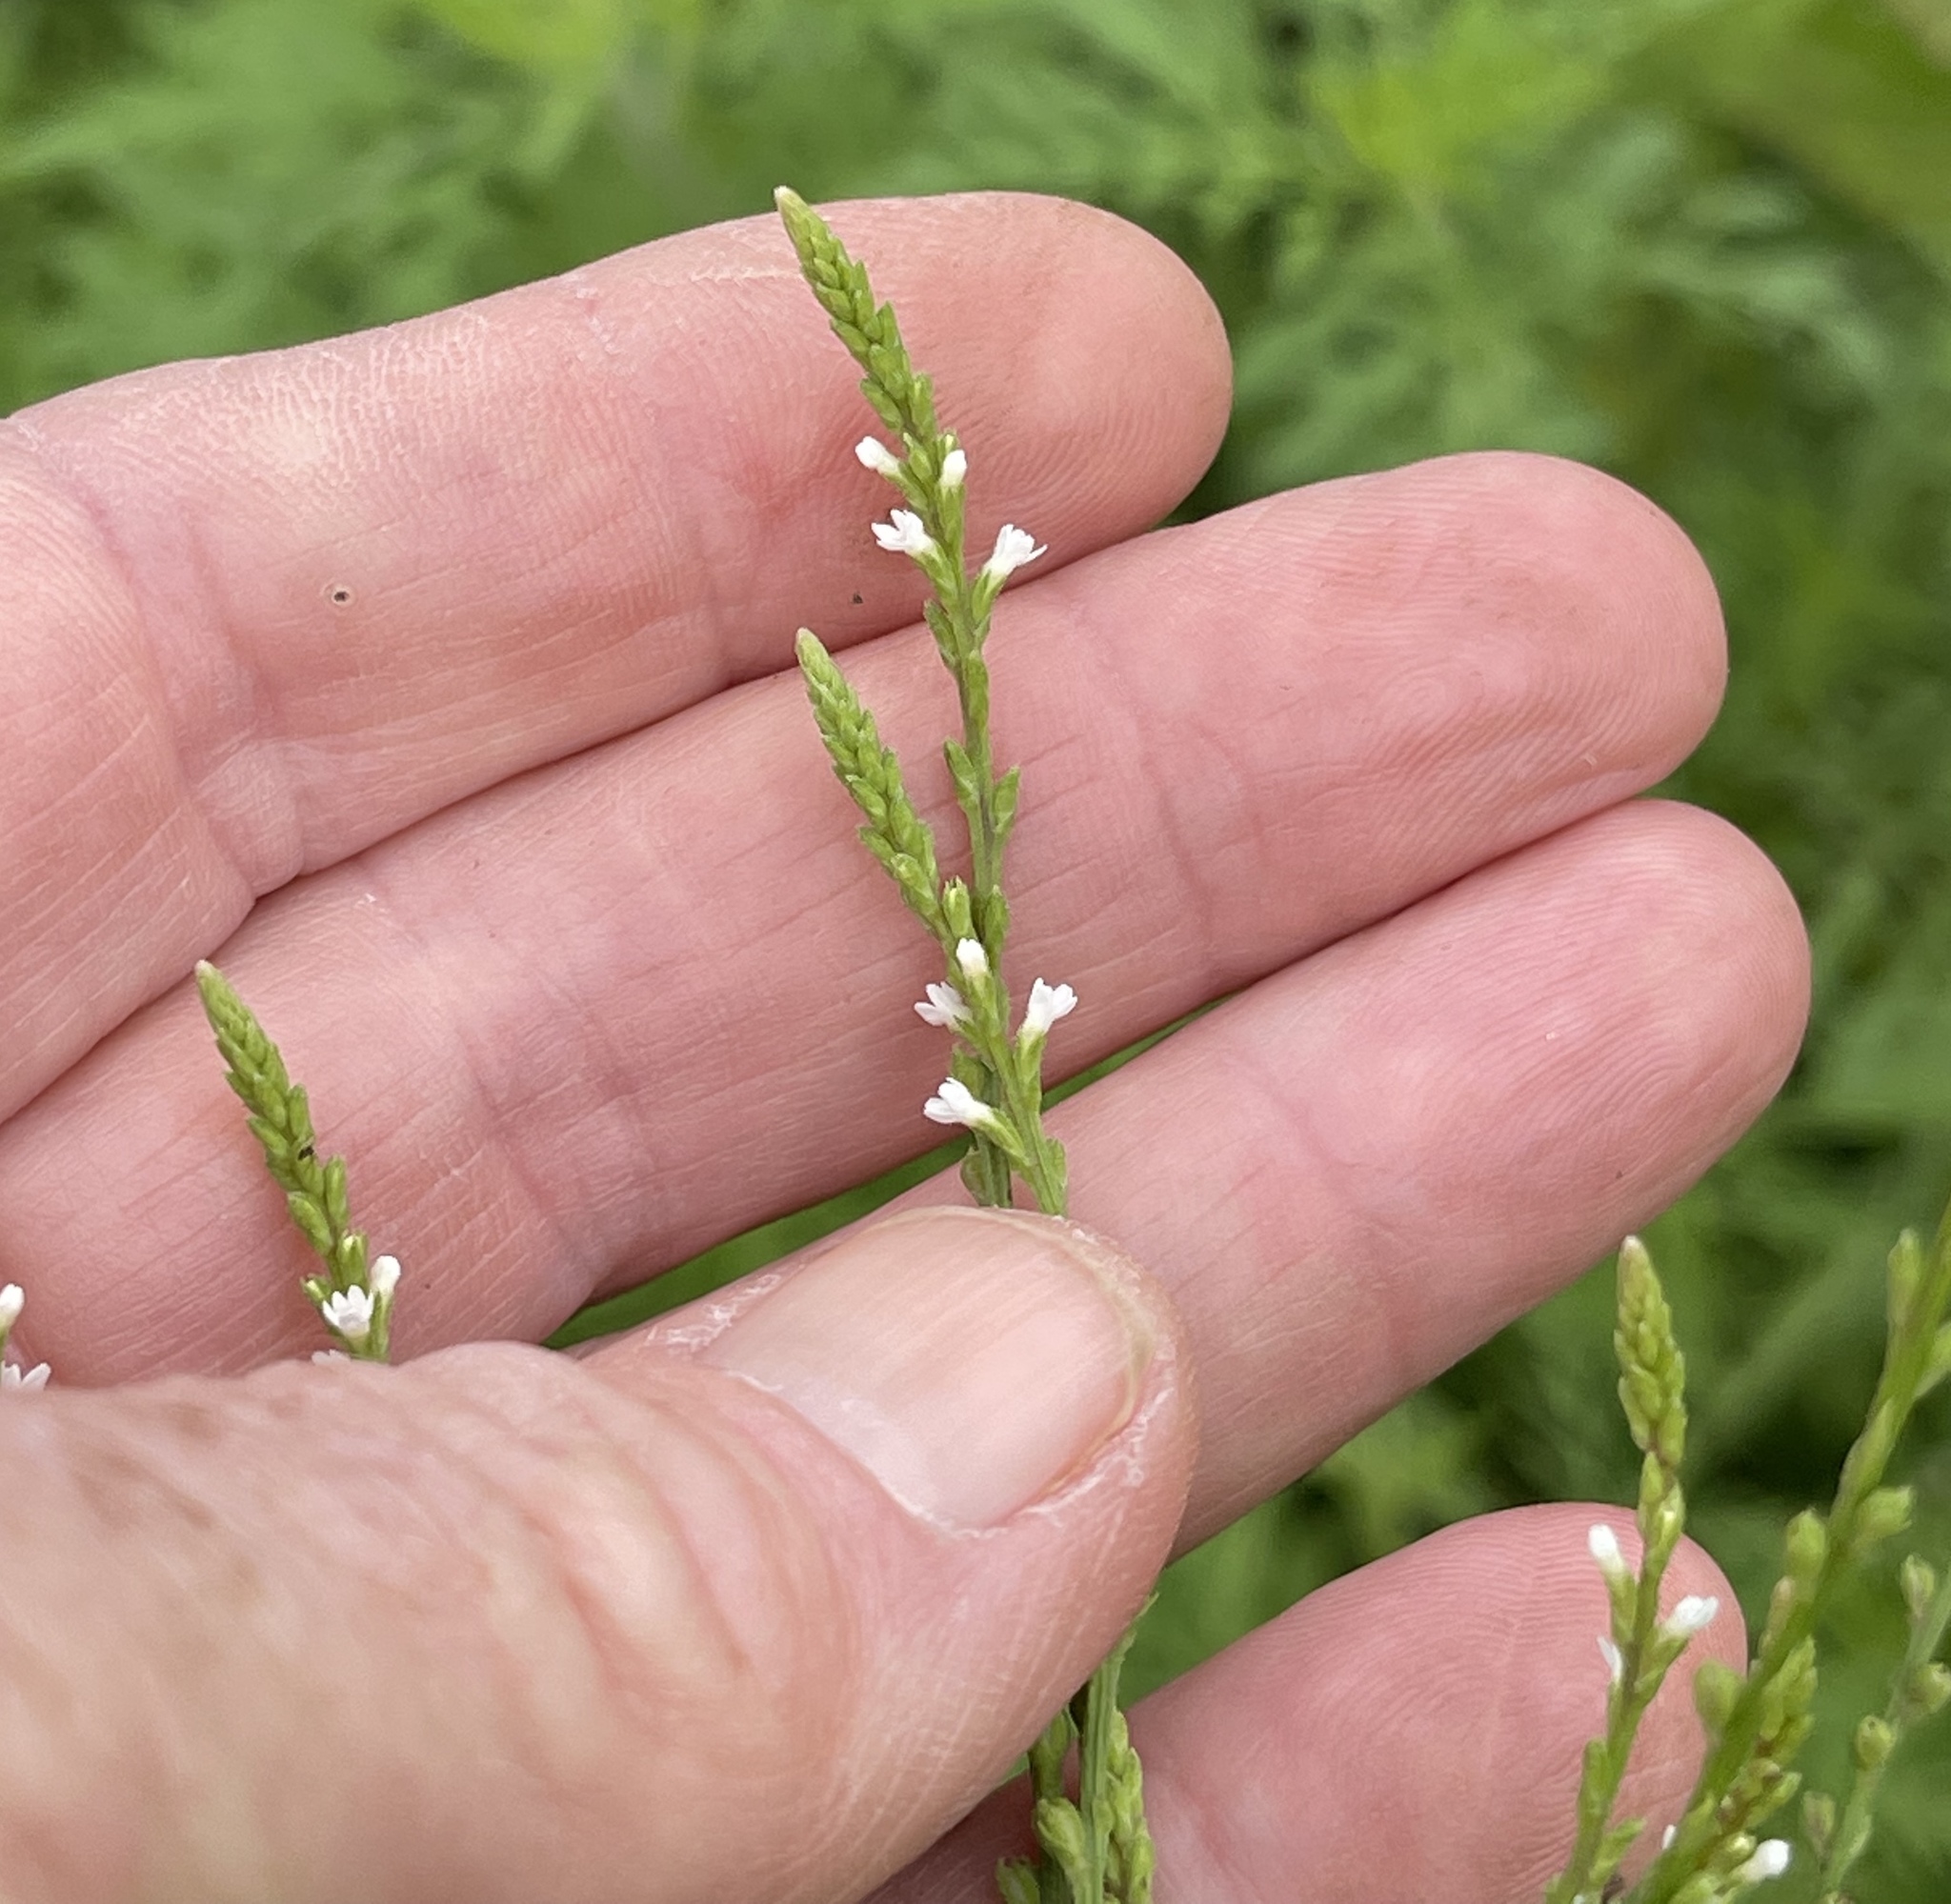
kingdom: Plantae
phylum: Tracheophyta
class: Magnoliopsida
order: Lamiales
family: Verbenaceae
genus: Verbena
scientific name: Verbena urticifolia
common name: Nettle-leaved vervain
